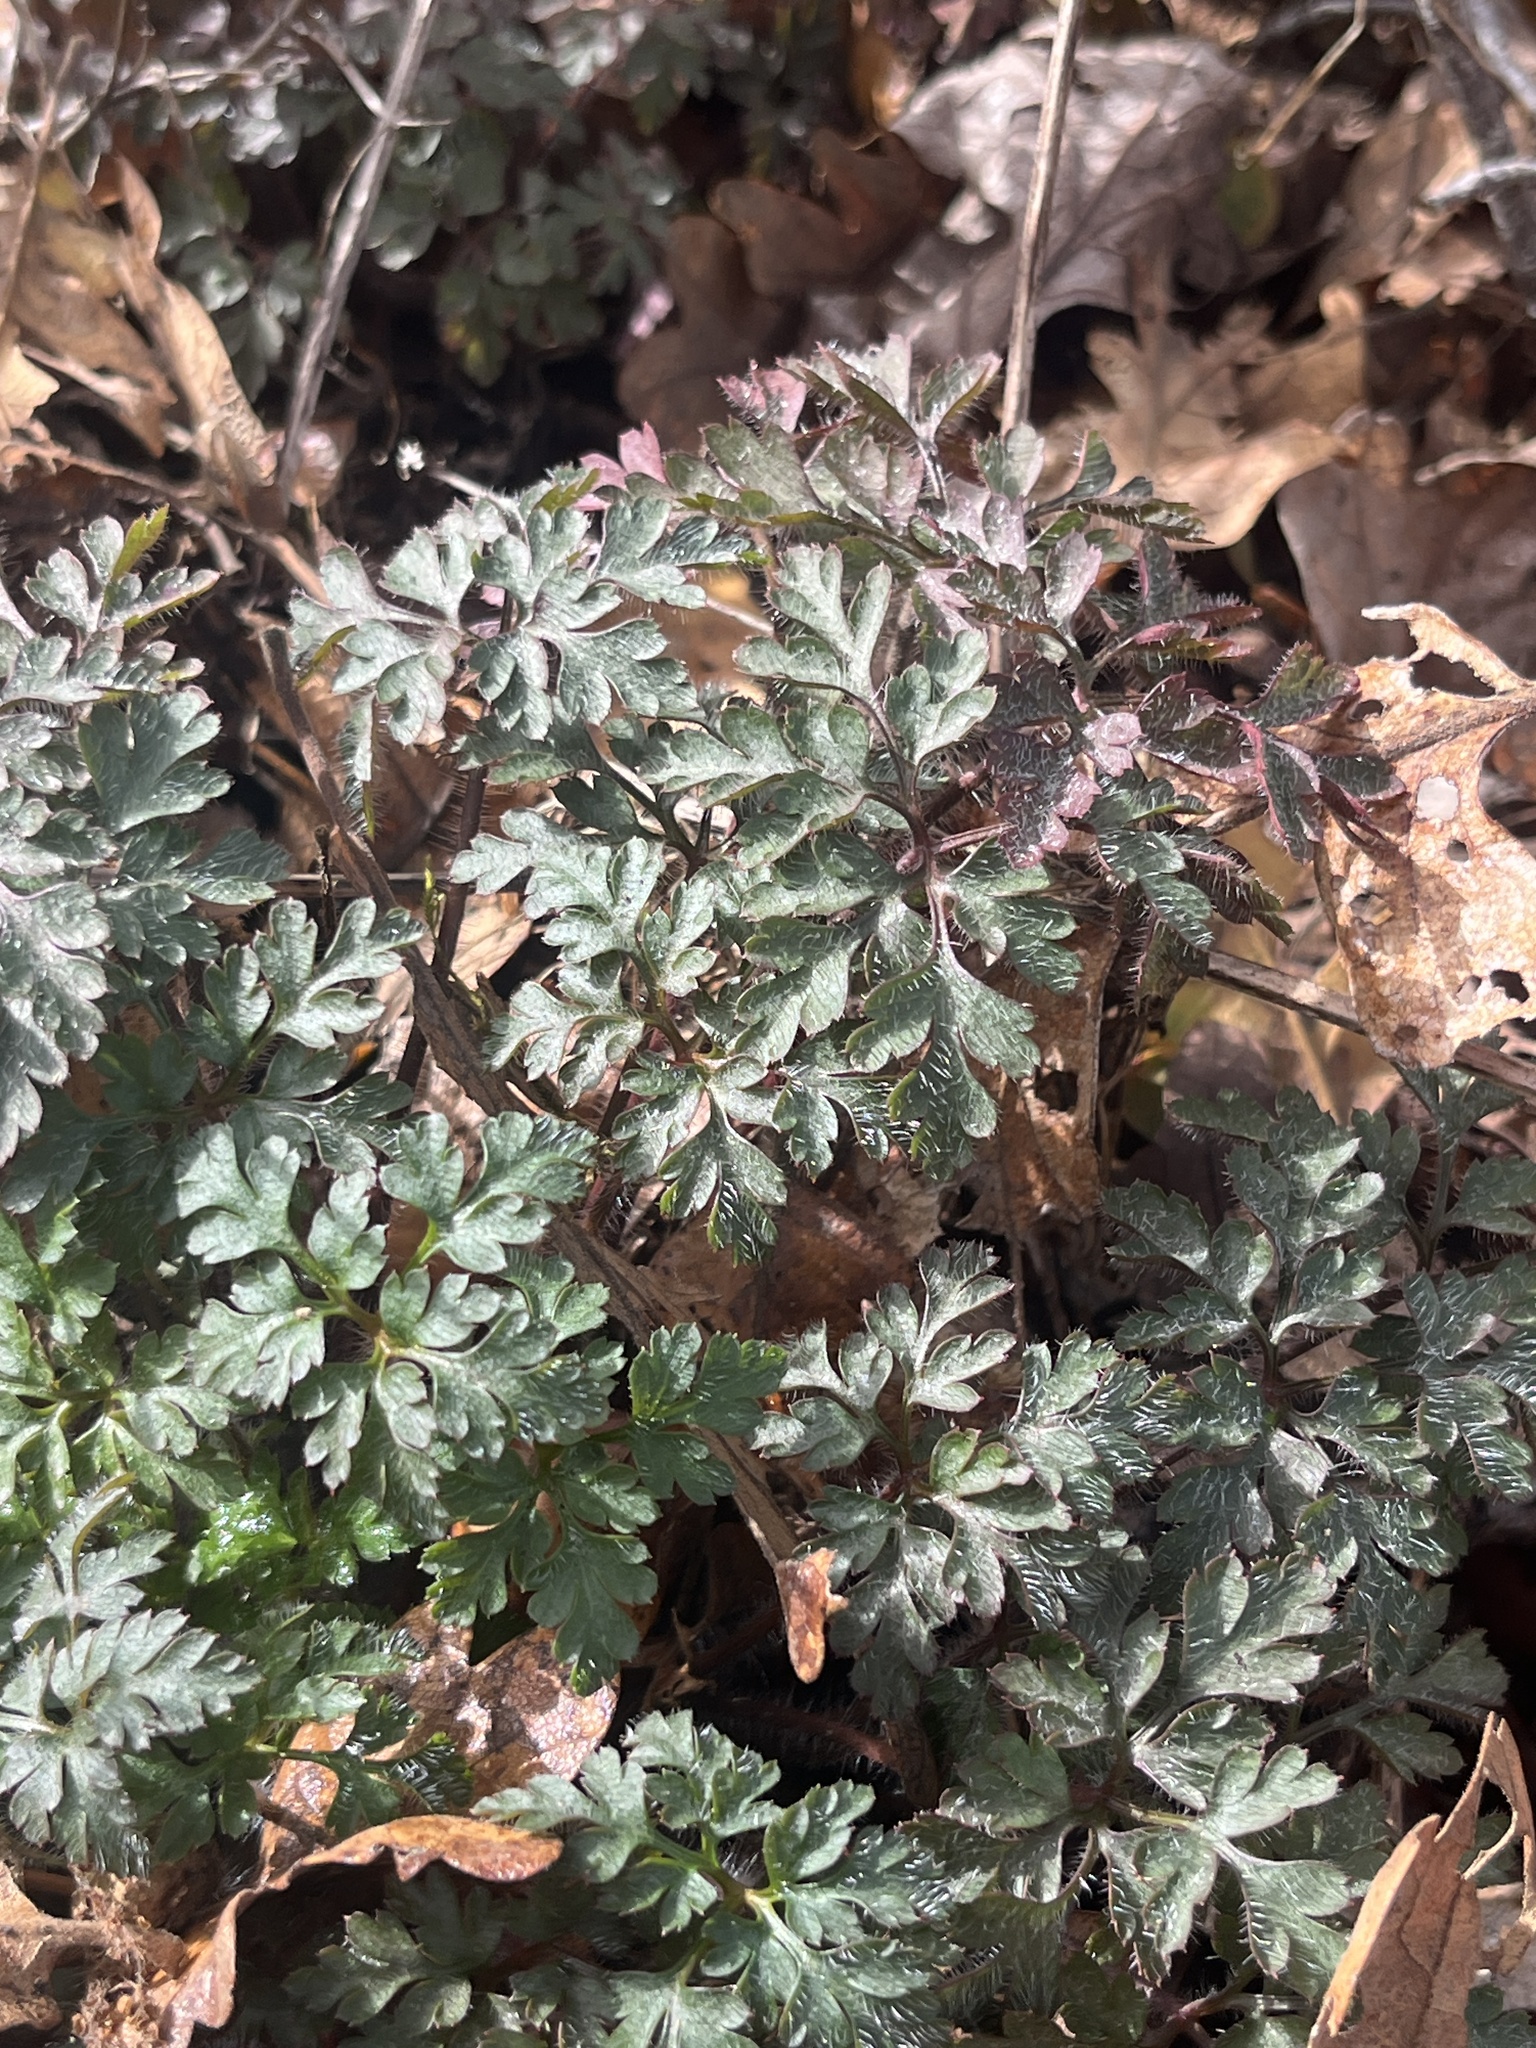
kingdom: Plantae
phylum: Tracheophyta
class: Magnoliopsida
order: Geraniales
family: Geraniaceae
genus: Geranium
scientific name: Geranium robertianum
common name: Herb-robert
